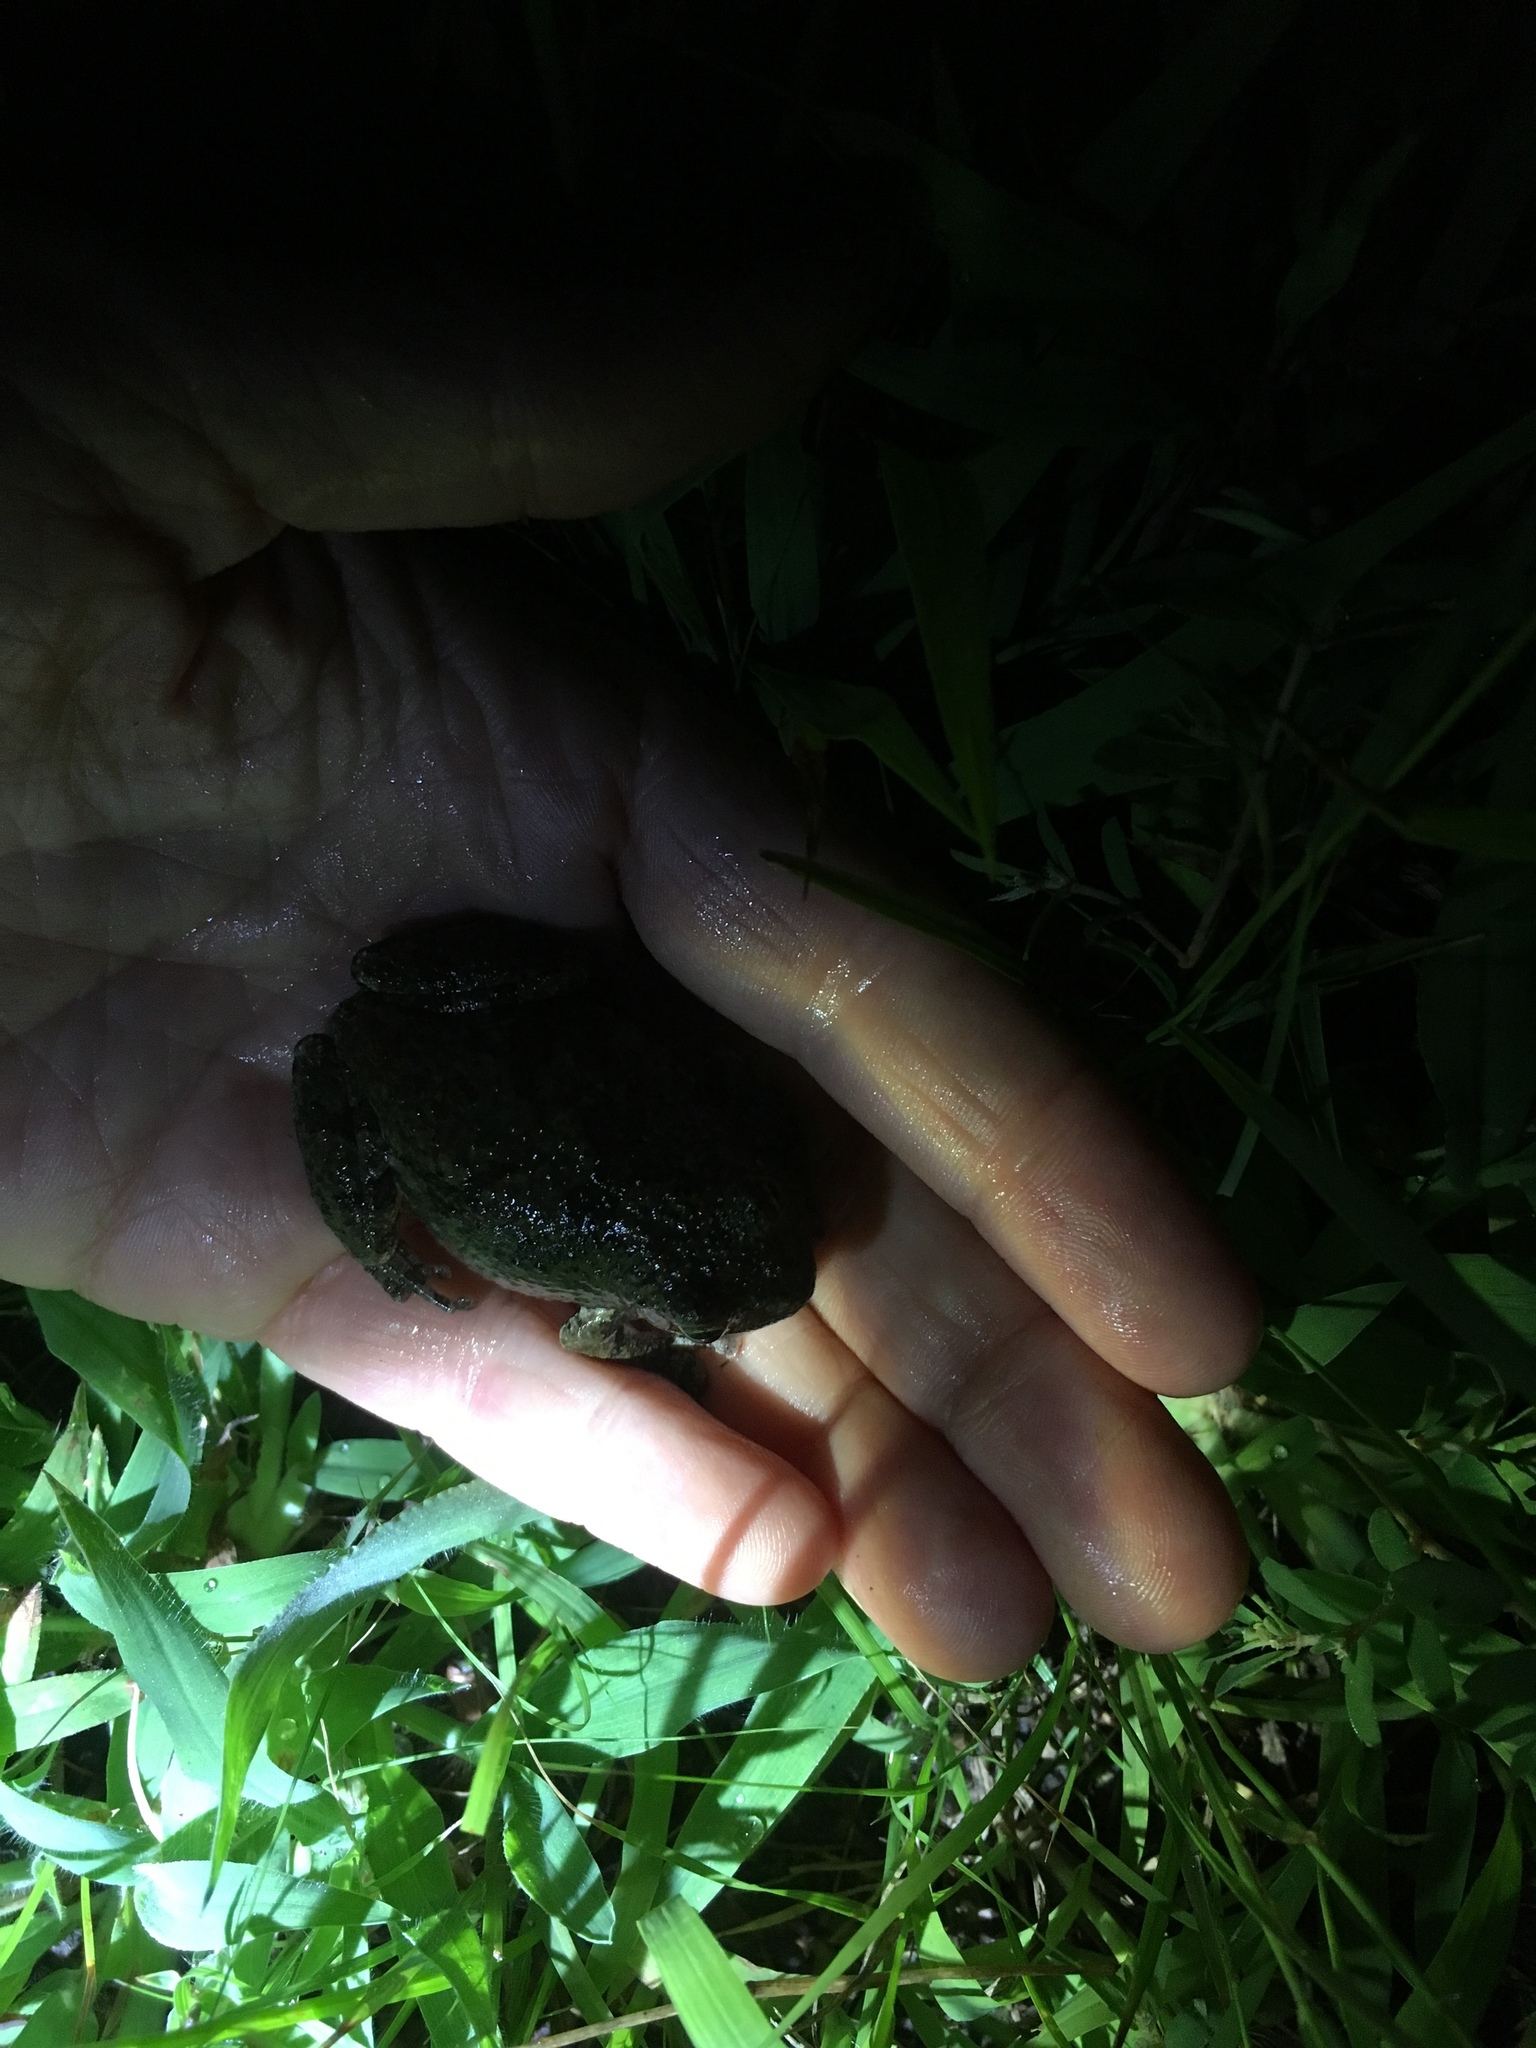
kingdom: Animalia
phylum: Chordata
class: Amphibia
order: Anura
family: Hylidae
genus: Dryophytes
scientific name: Dryophytes versicolor
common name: Gray treefrog
